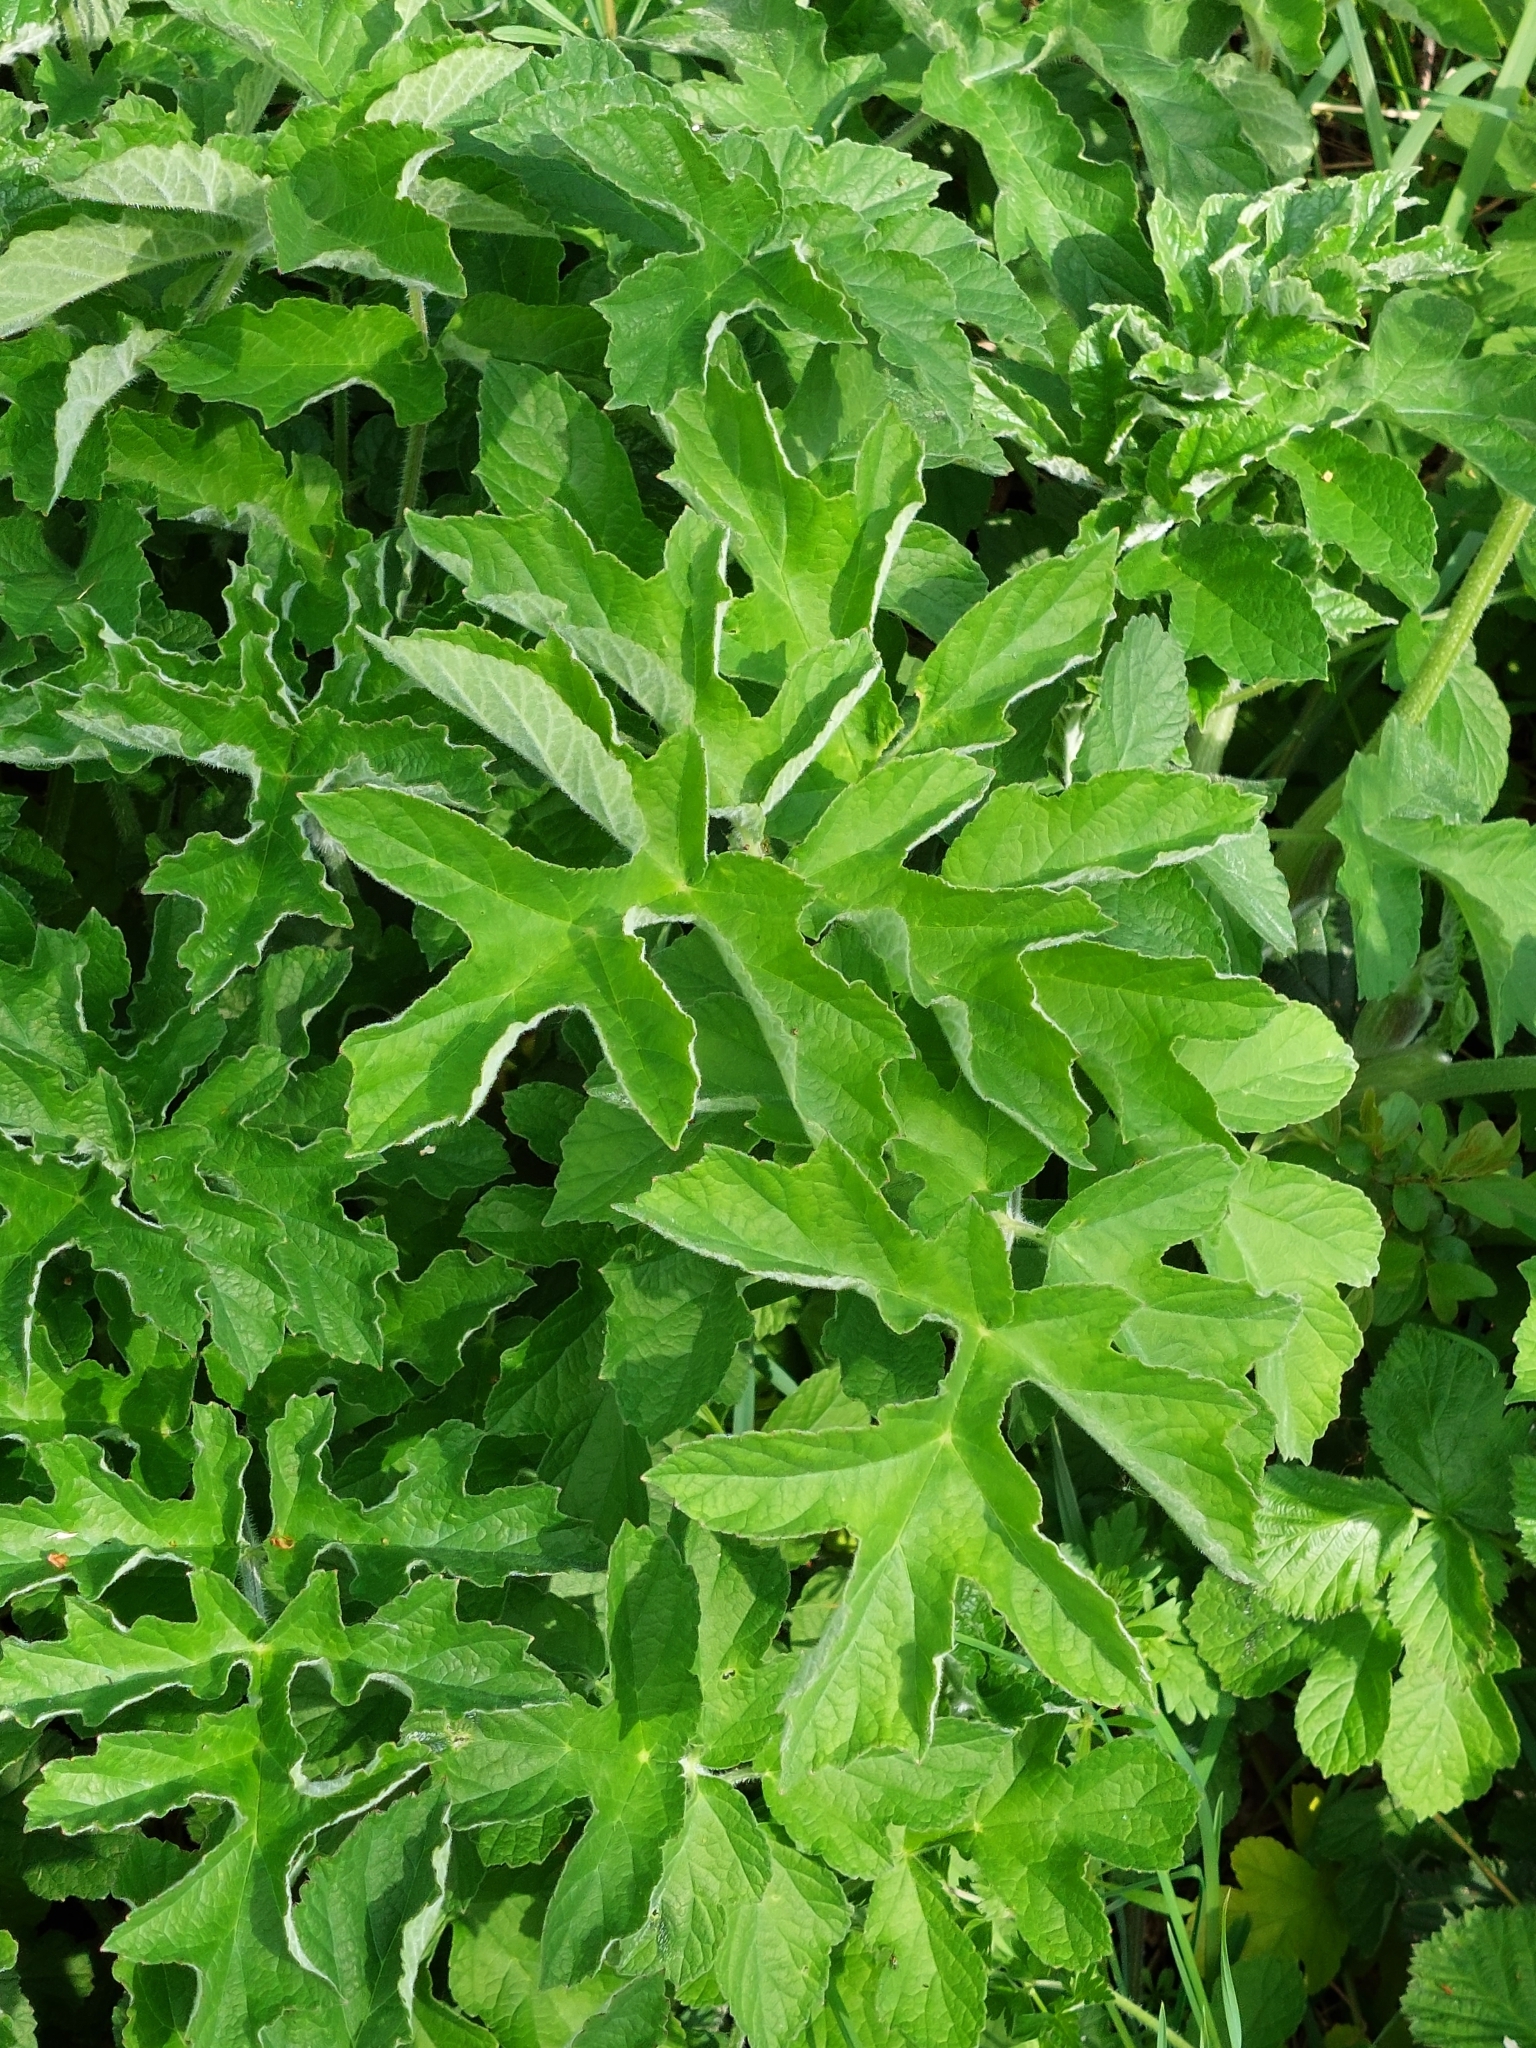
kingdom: Plantae
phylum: Tracheophyta
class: Magnoliopsida
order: Apiales
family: Apiaceae
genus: Heracleum
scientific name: Heracleum sphondylium
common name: Hogweed
